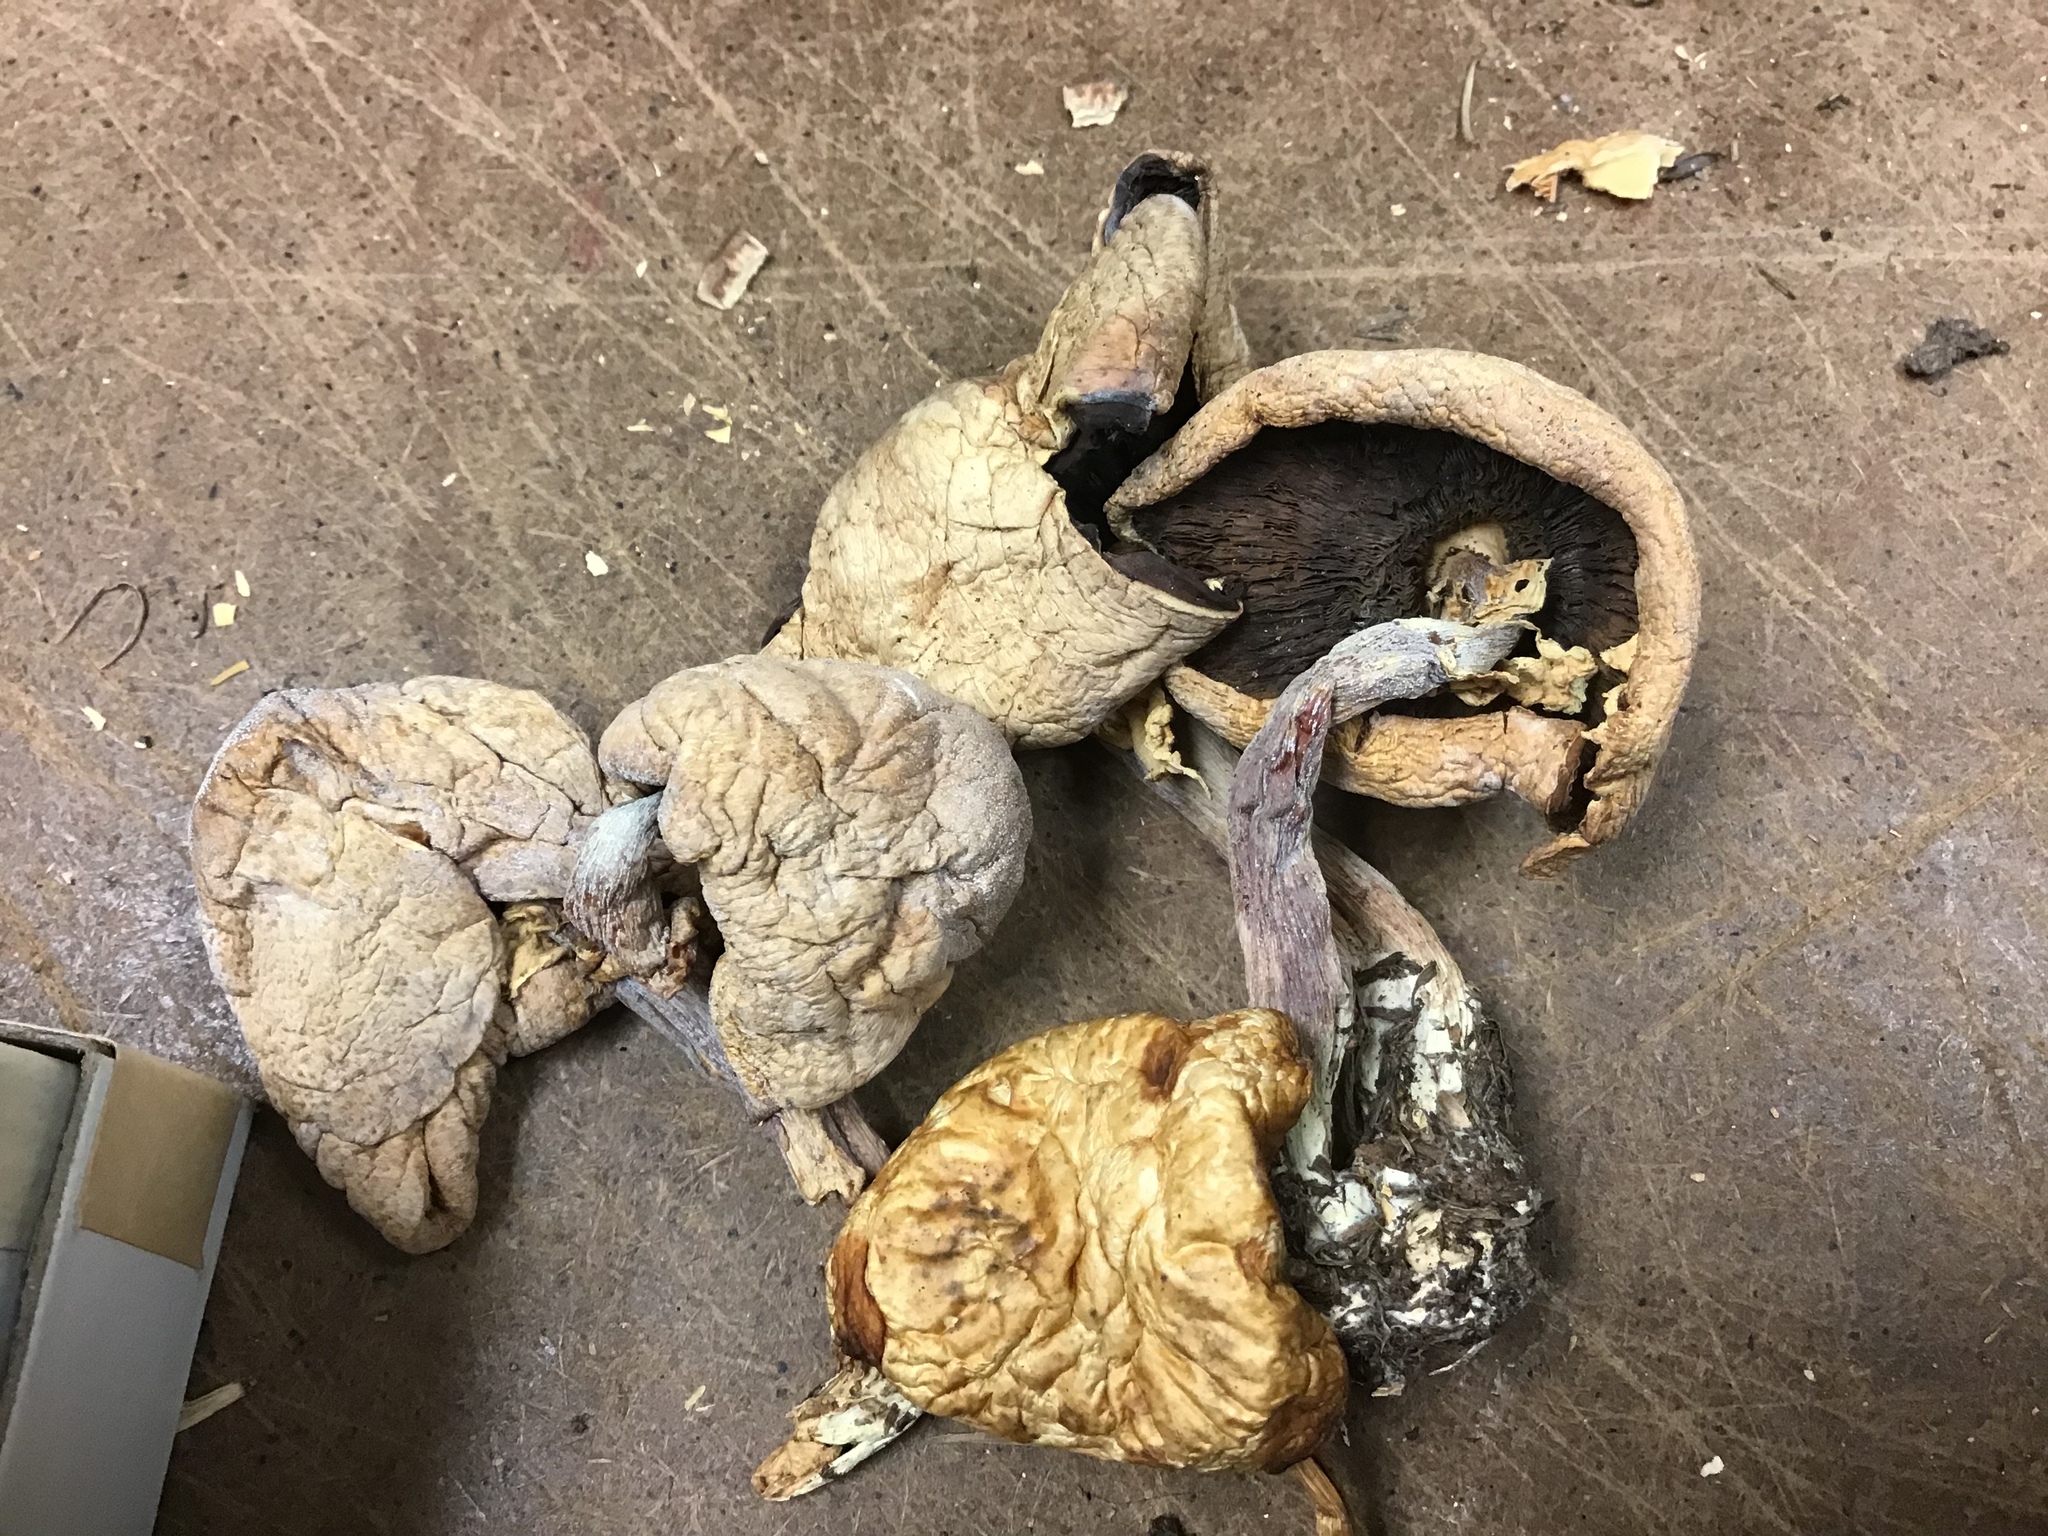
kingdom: Fungi
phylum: Basidiomycota
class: Agaricomycetes
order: Agaricales
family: Strophariaceae
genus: Agrocybe
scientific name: Agrocybe praecox
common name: Spring fieldcap
